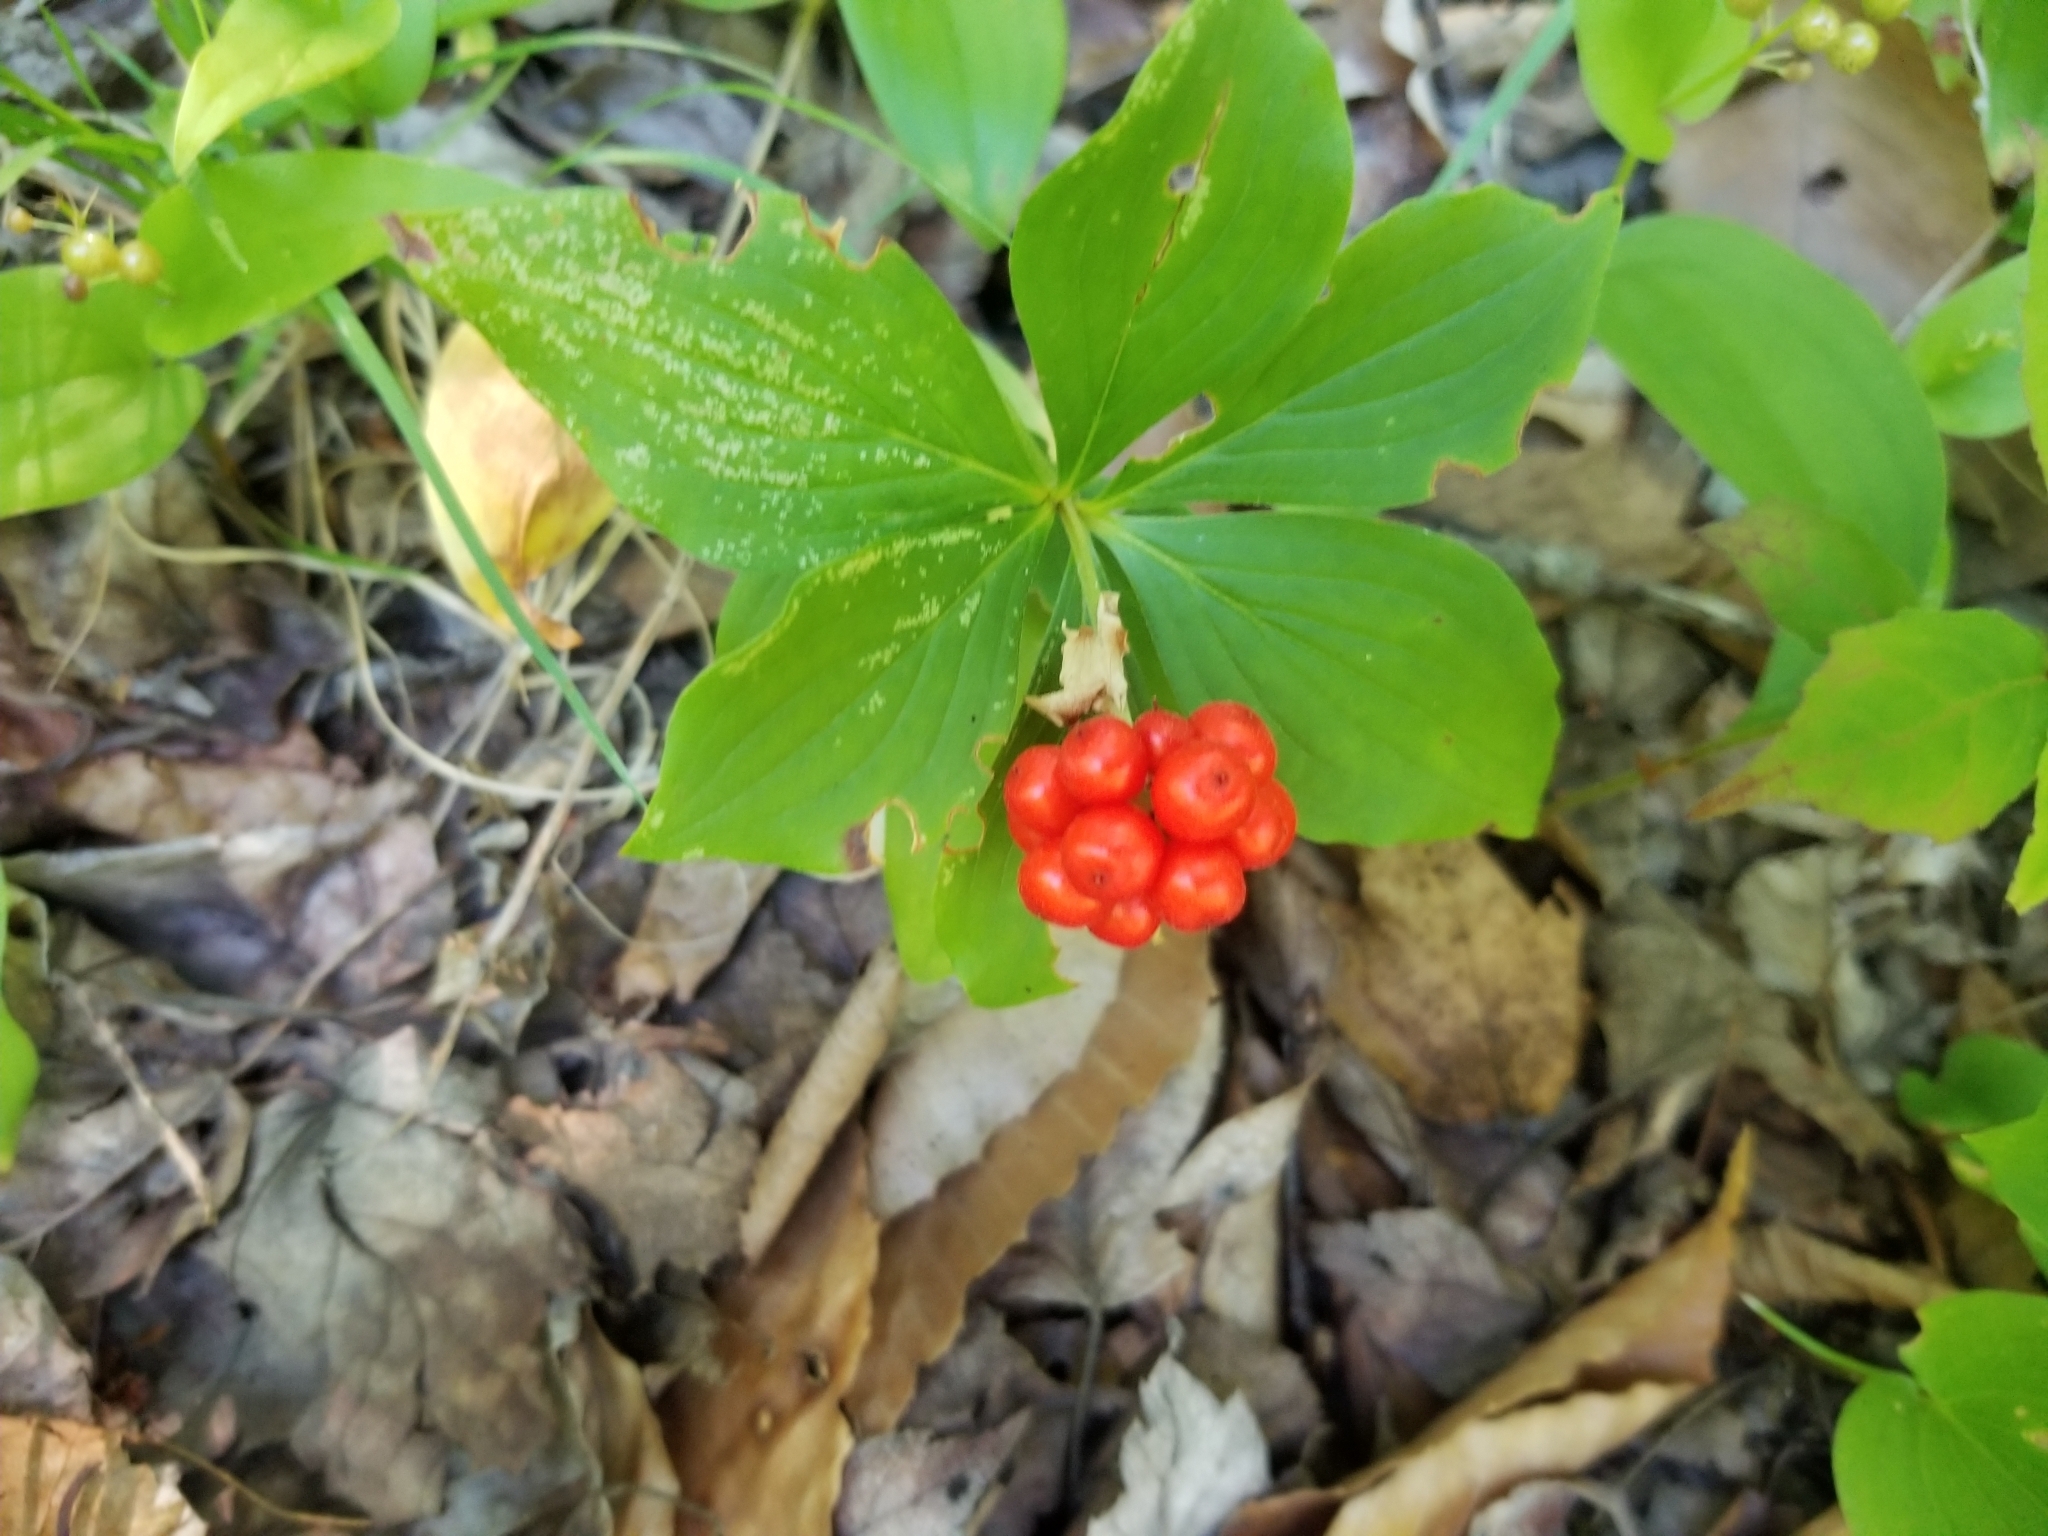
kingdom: Plantae
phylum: Tracheophyta
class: Magnoliopsida
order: Cornales
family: Cornaceae
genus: Cornus
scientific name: Cornus canadensis
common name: Creeping dogwood
